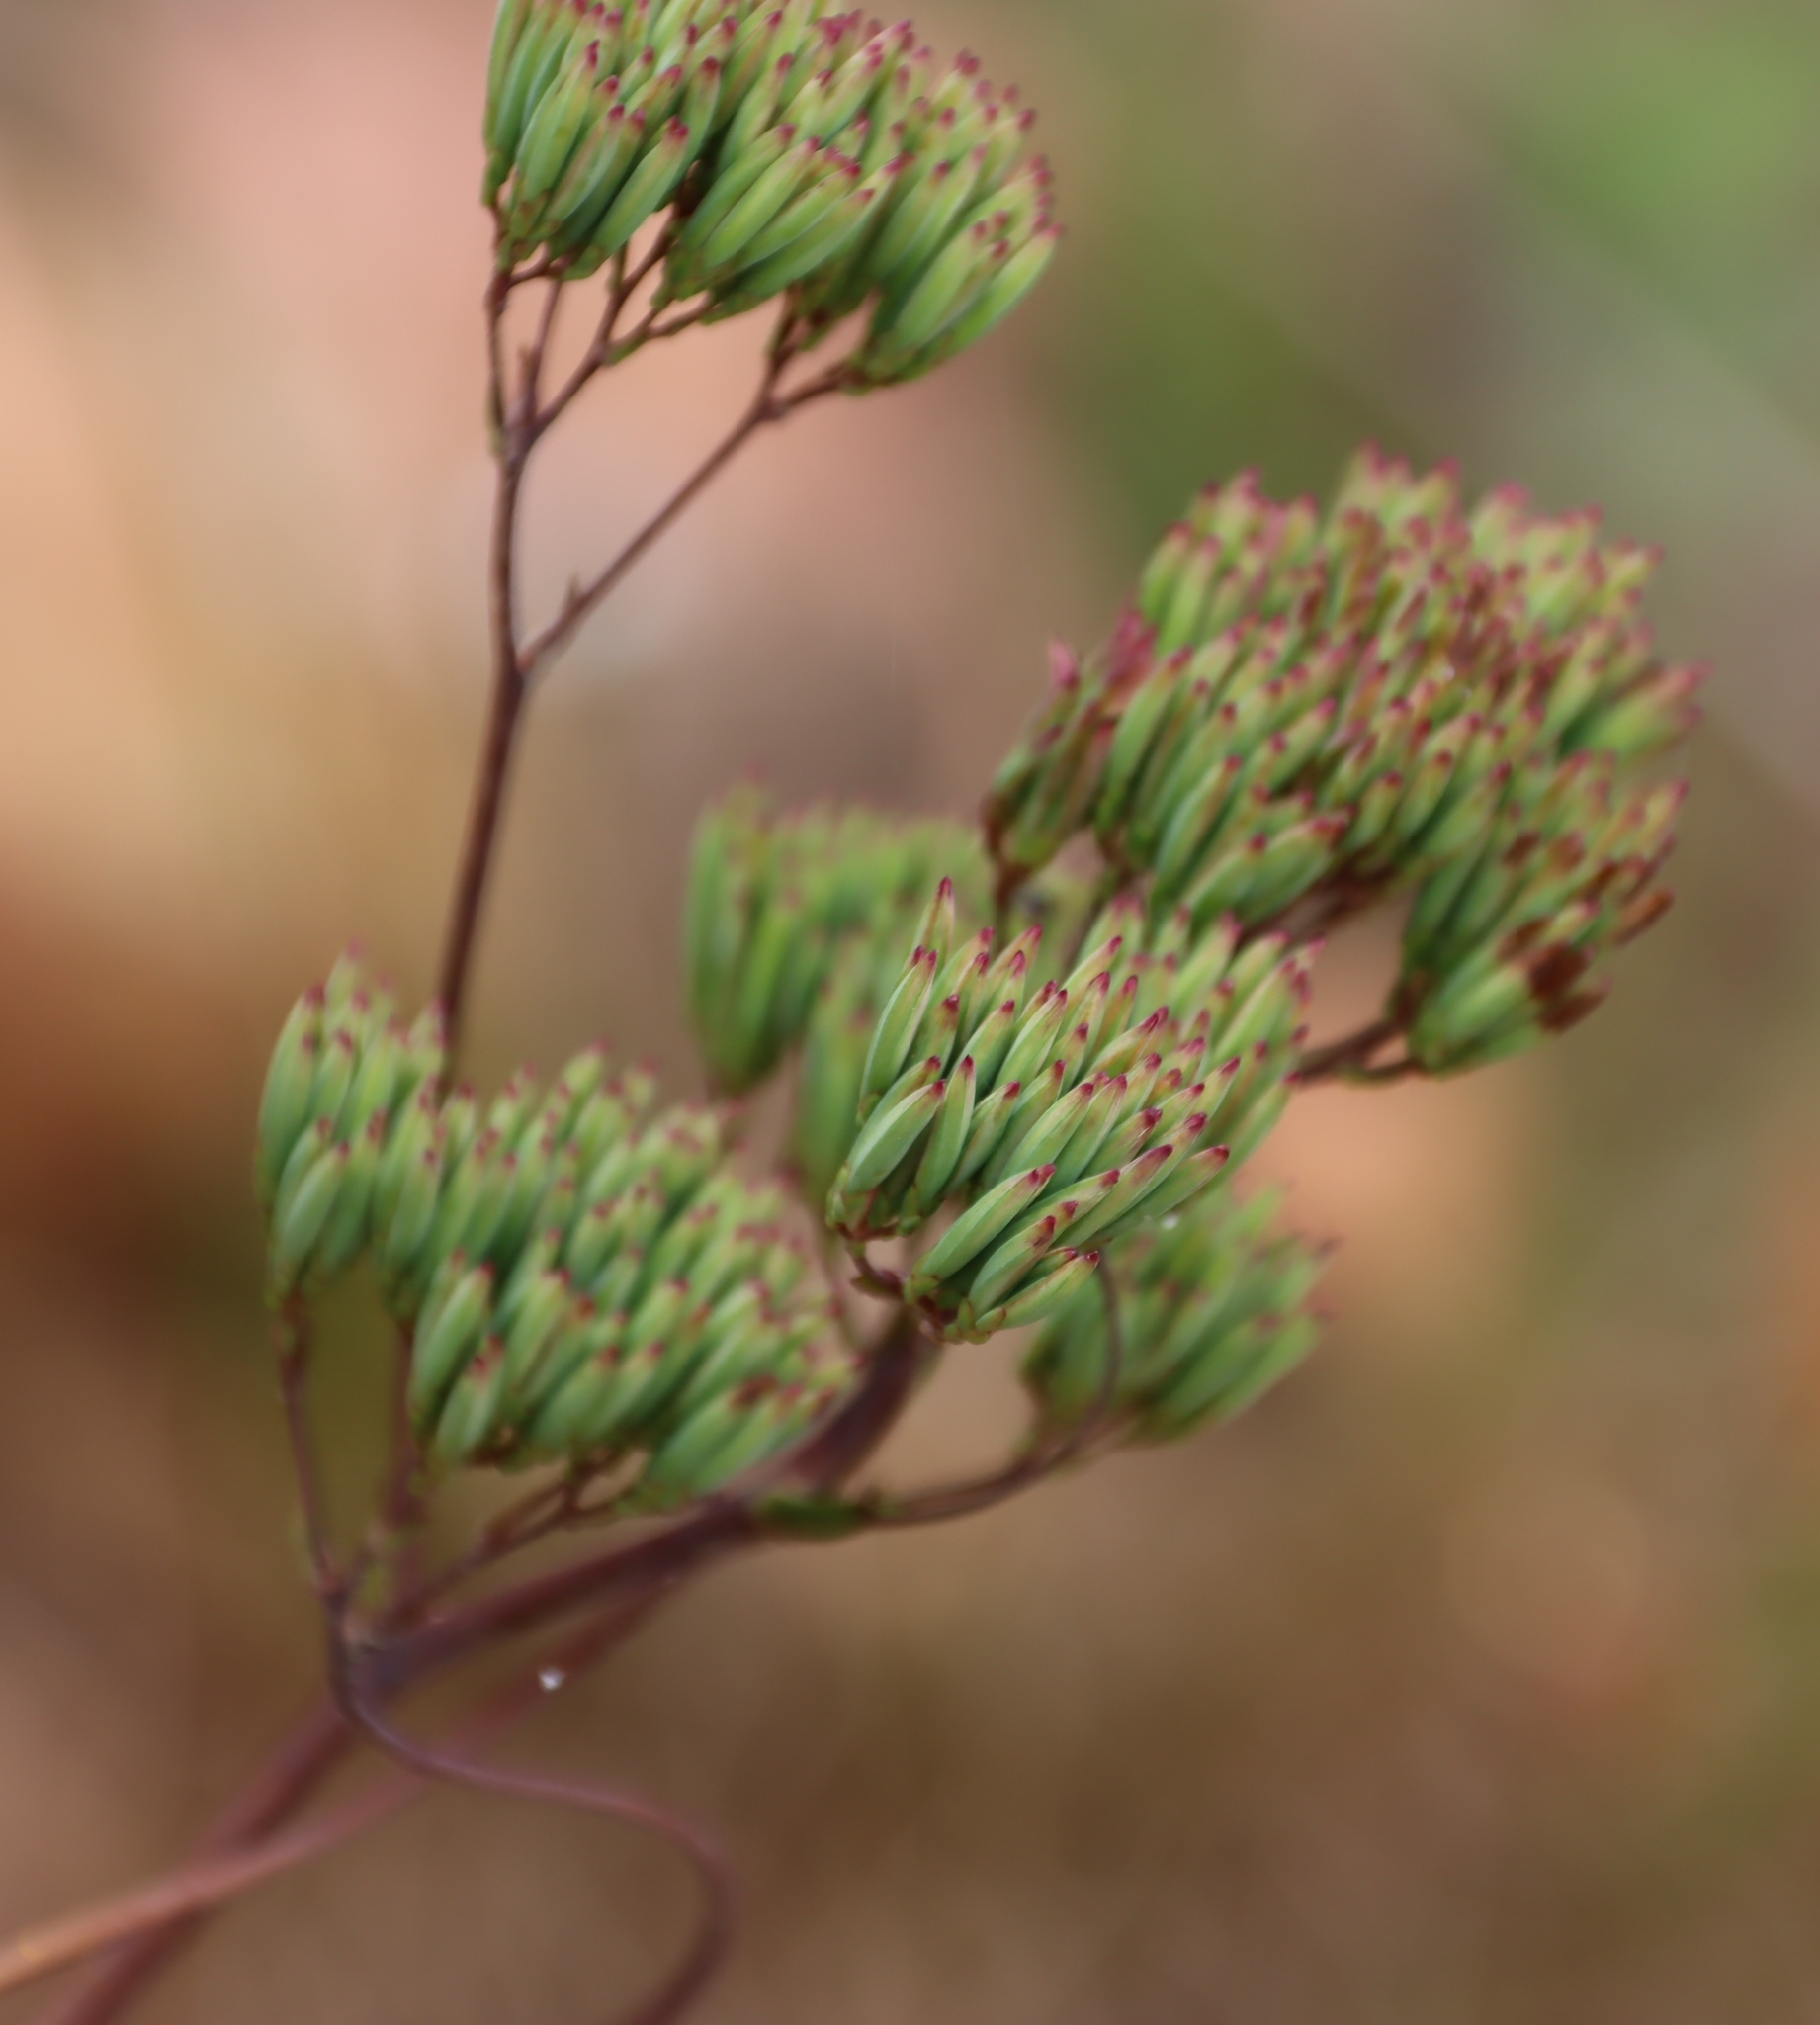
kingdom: Plantae
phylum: Tracheophyta
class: Magnoliopsida
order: Asterales
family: Asteraceae
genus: Corymbium
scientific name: Corymbium glabrum
